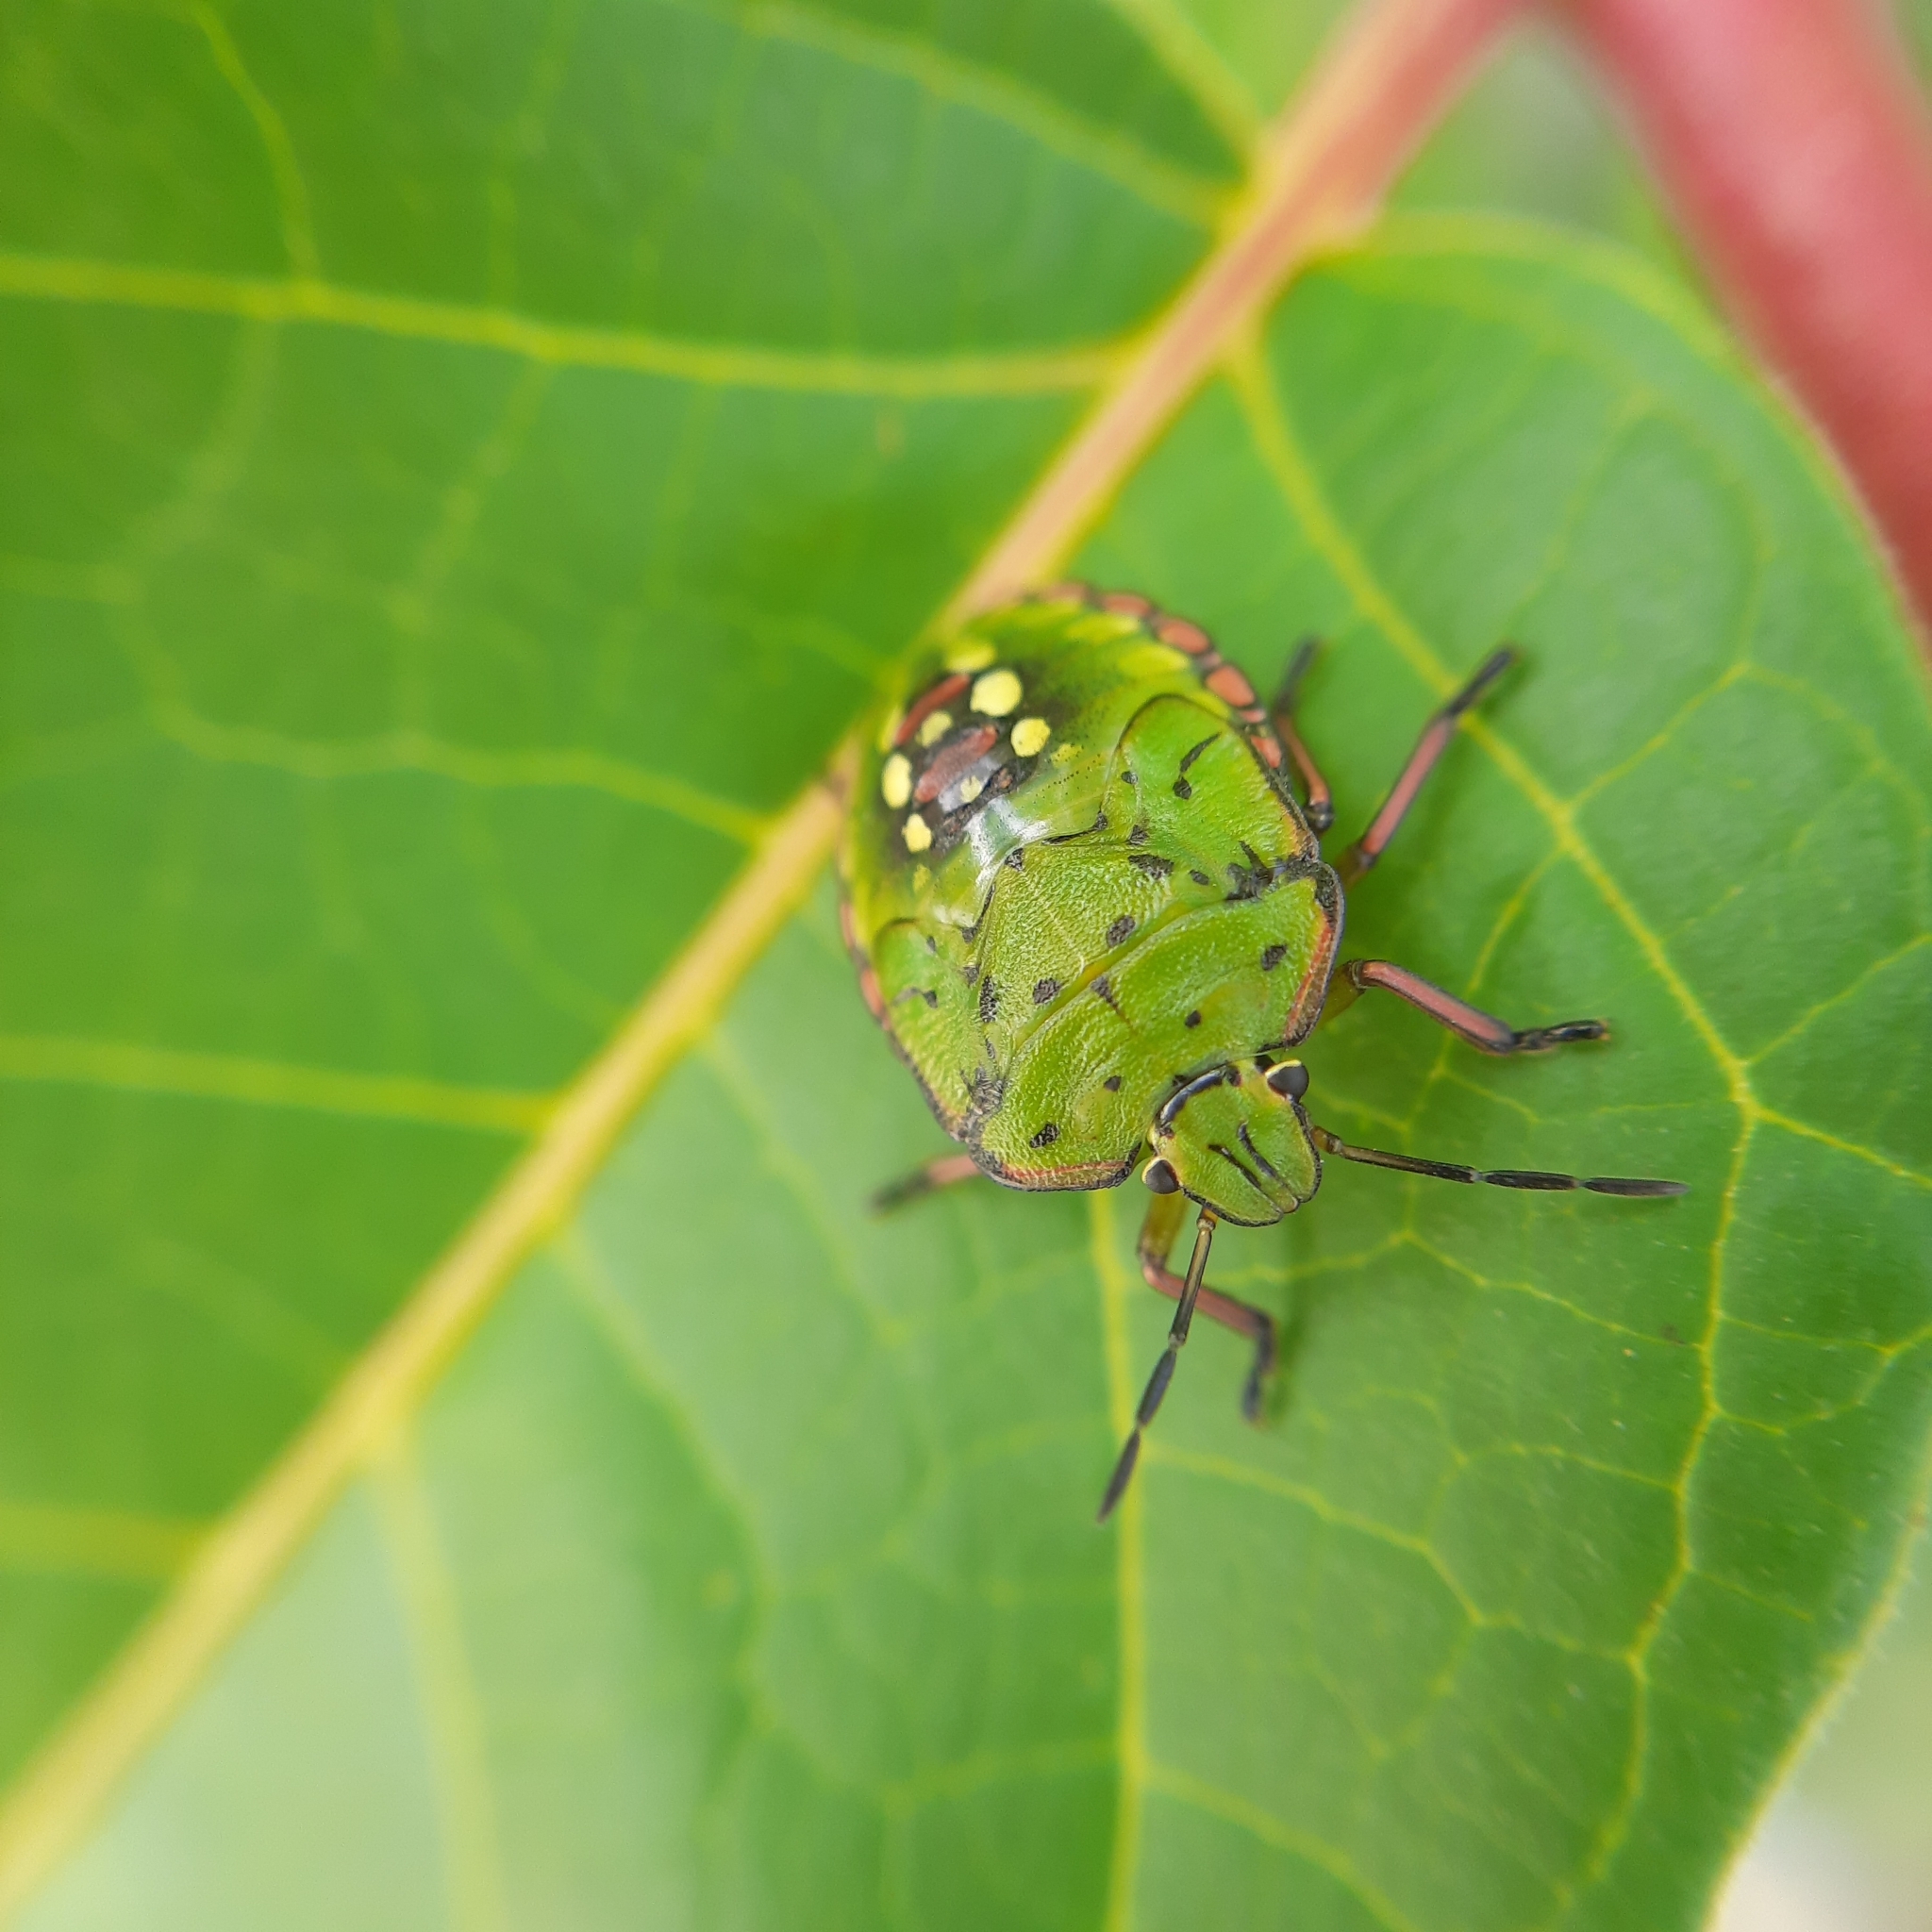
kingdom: Animalia
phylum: Arthropoda
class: Insecta
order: Hemiptera
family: Pentatomidae
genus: Nezara
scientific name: Nezara viridula
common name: Southern green stink bug
